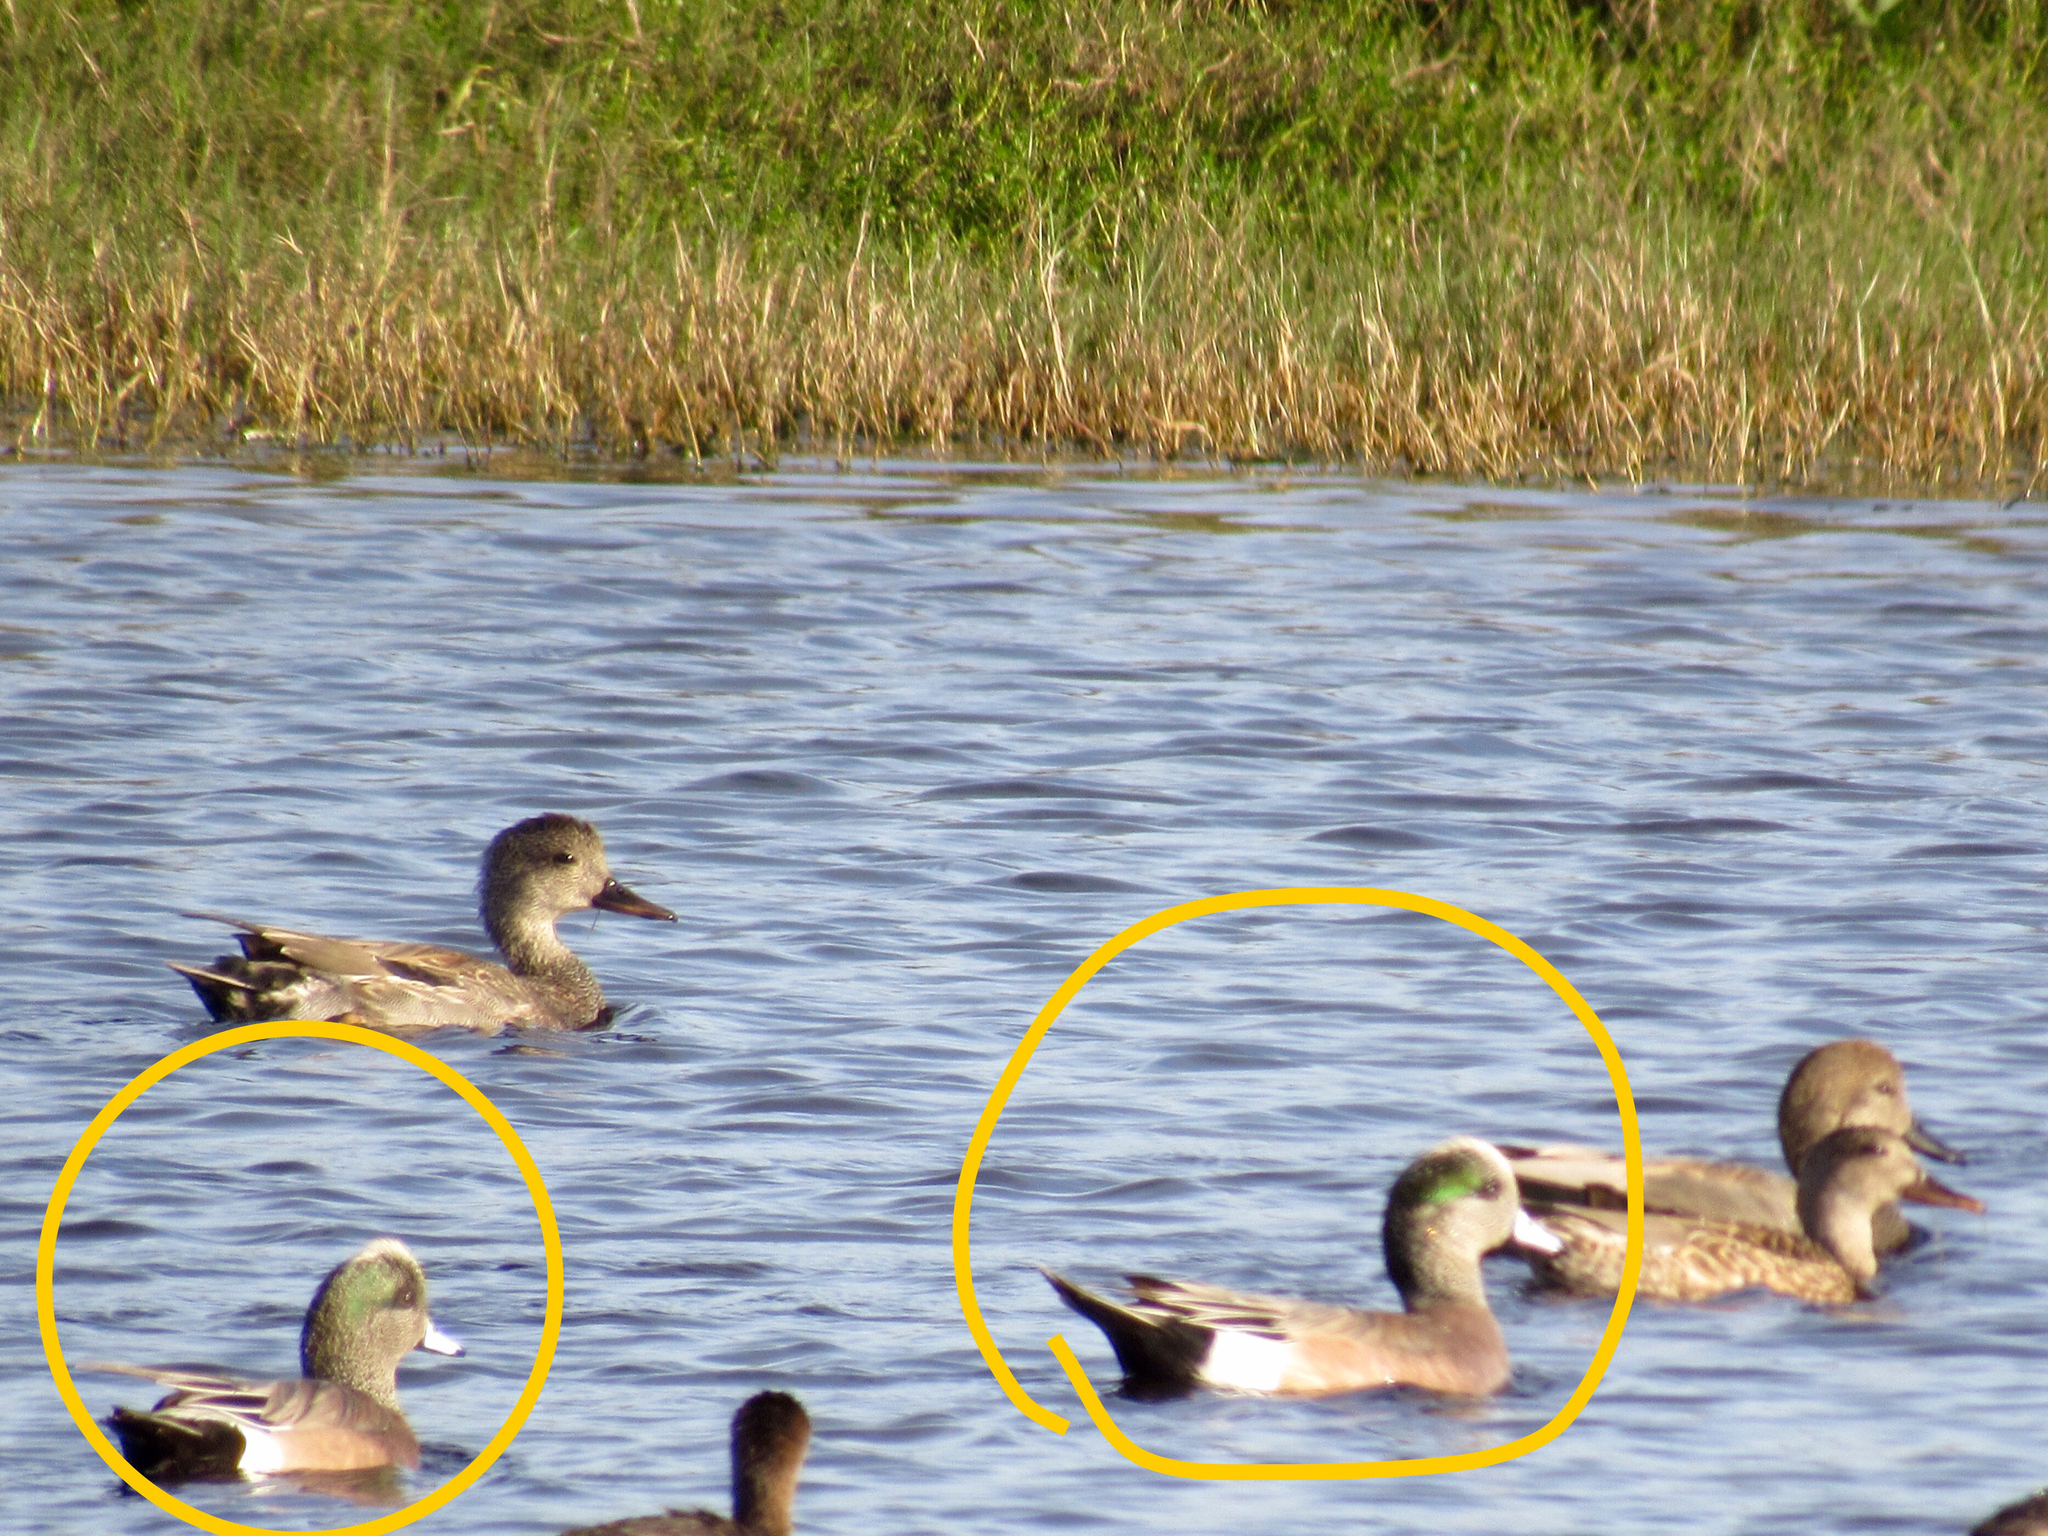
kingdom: Animalia
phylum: Chordata
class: Aves
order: Anseriformes
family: Anatidae
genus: Mareca
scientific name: Mareca americana
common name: American wigeon
